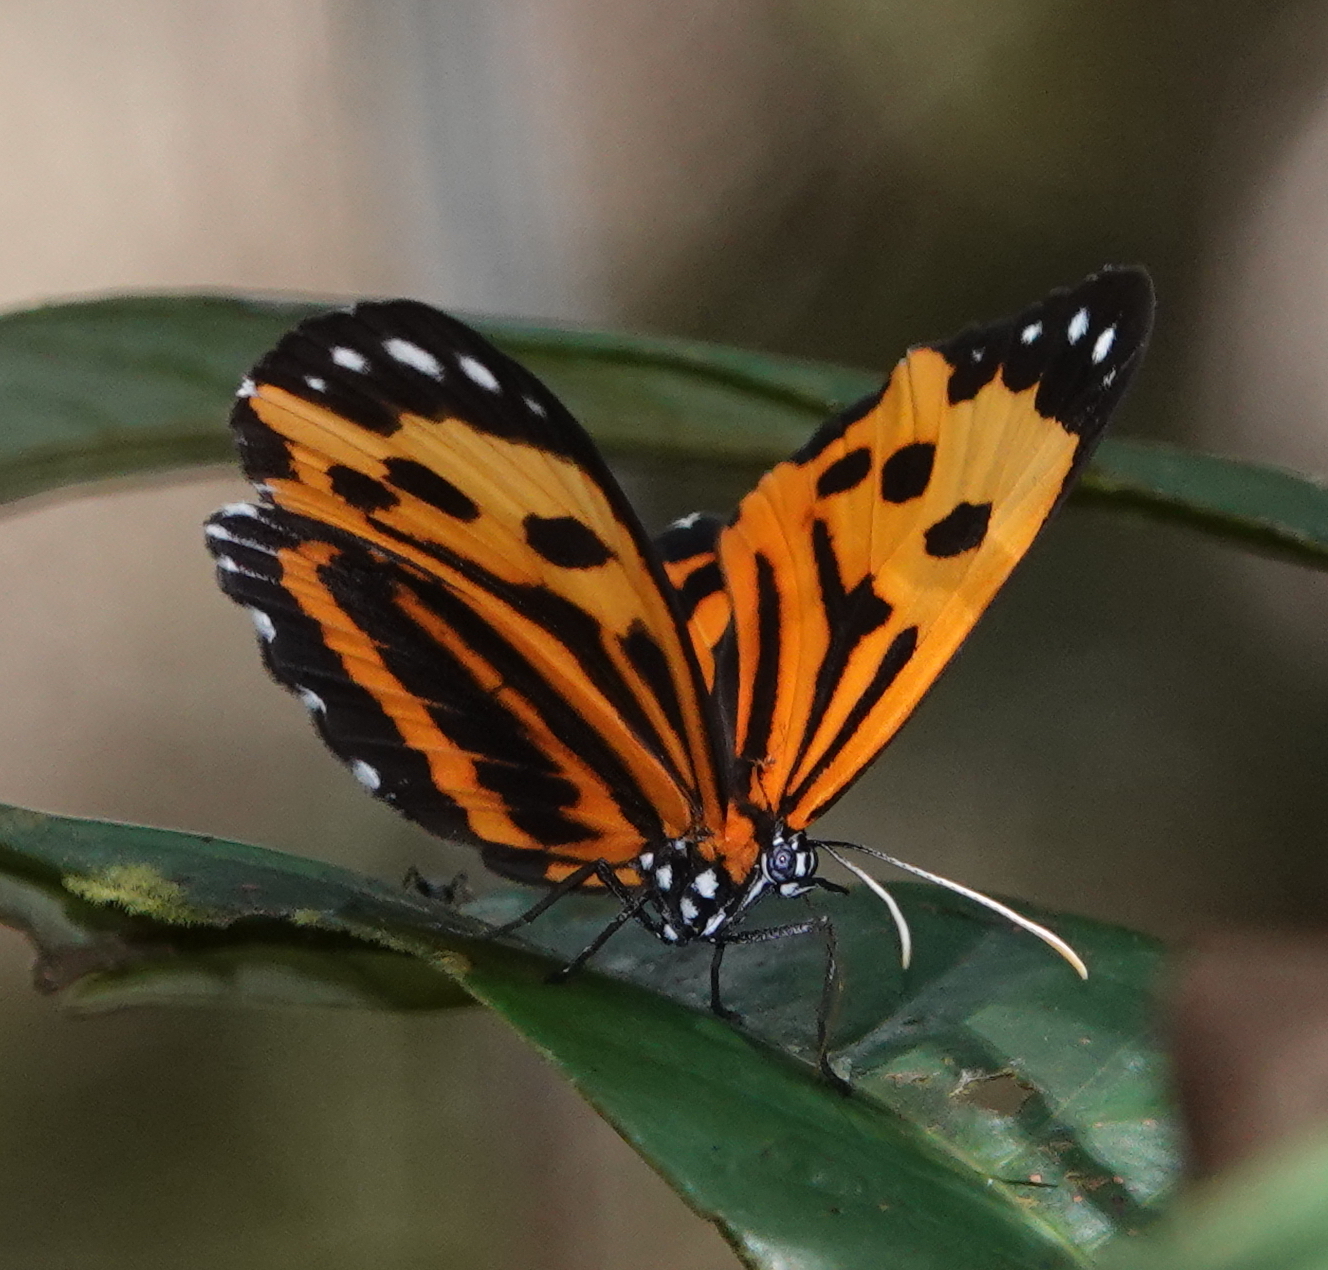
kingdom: Animalia
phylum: Arthropoda
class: Insecta
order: Lepidoptera
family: Riodinidae
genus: Stalachtis
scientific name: Stalachtis calliope
